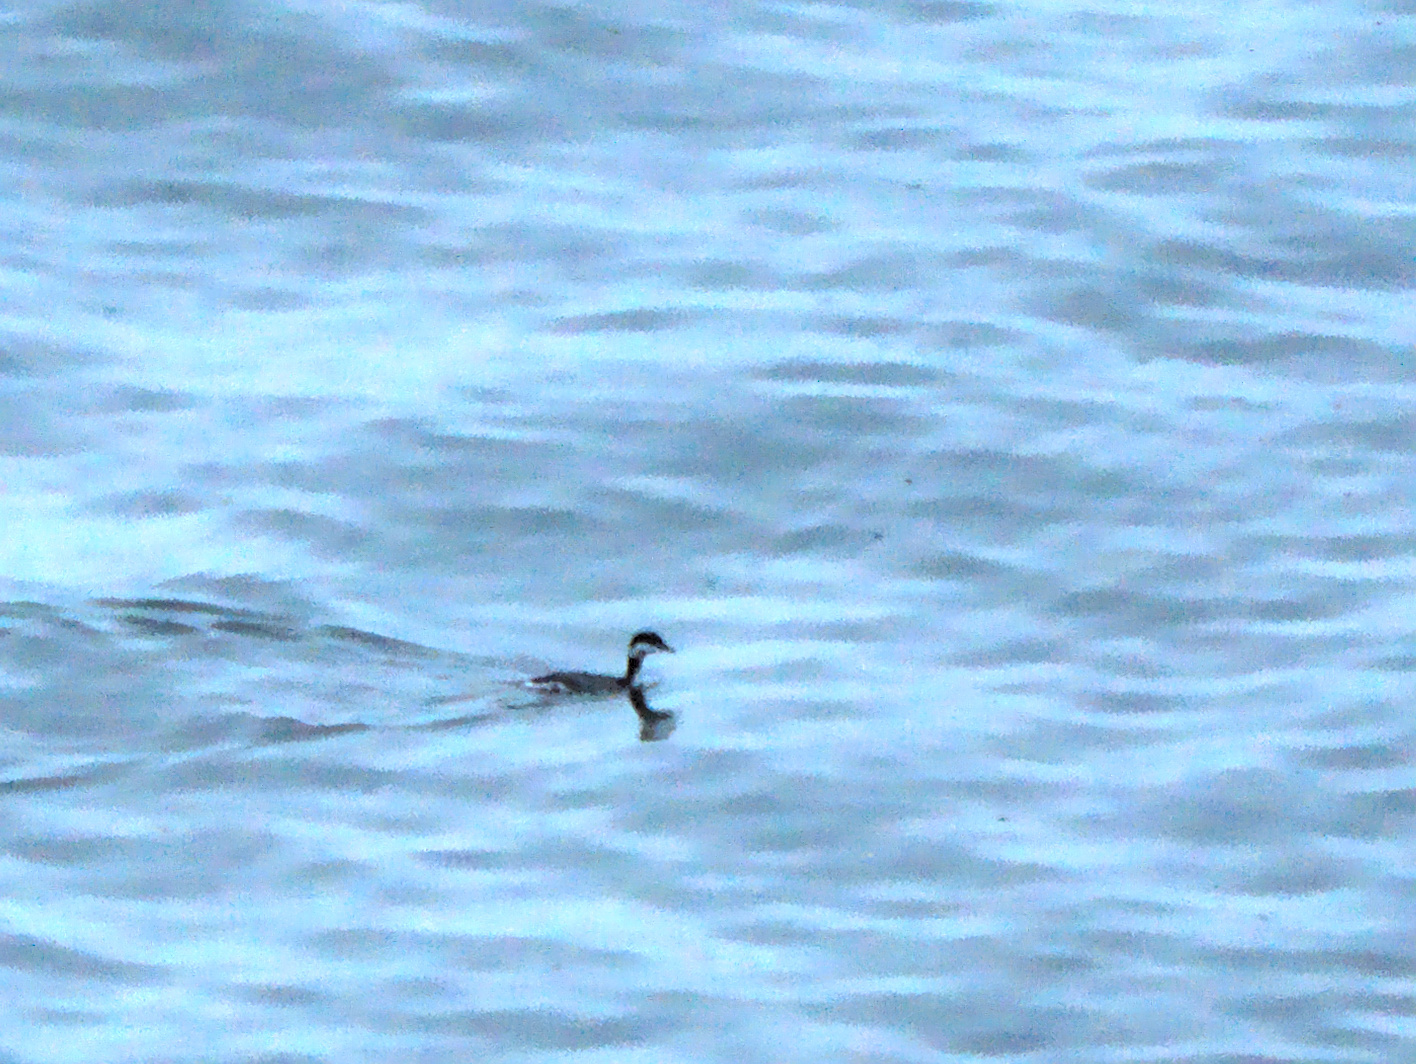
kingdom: Animalia
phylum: Chordata
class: Aves
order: Podicipediformes
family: Podicipedidae
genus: Podiceps
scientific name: Podiceps auritus
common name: Horned grebe
